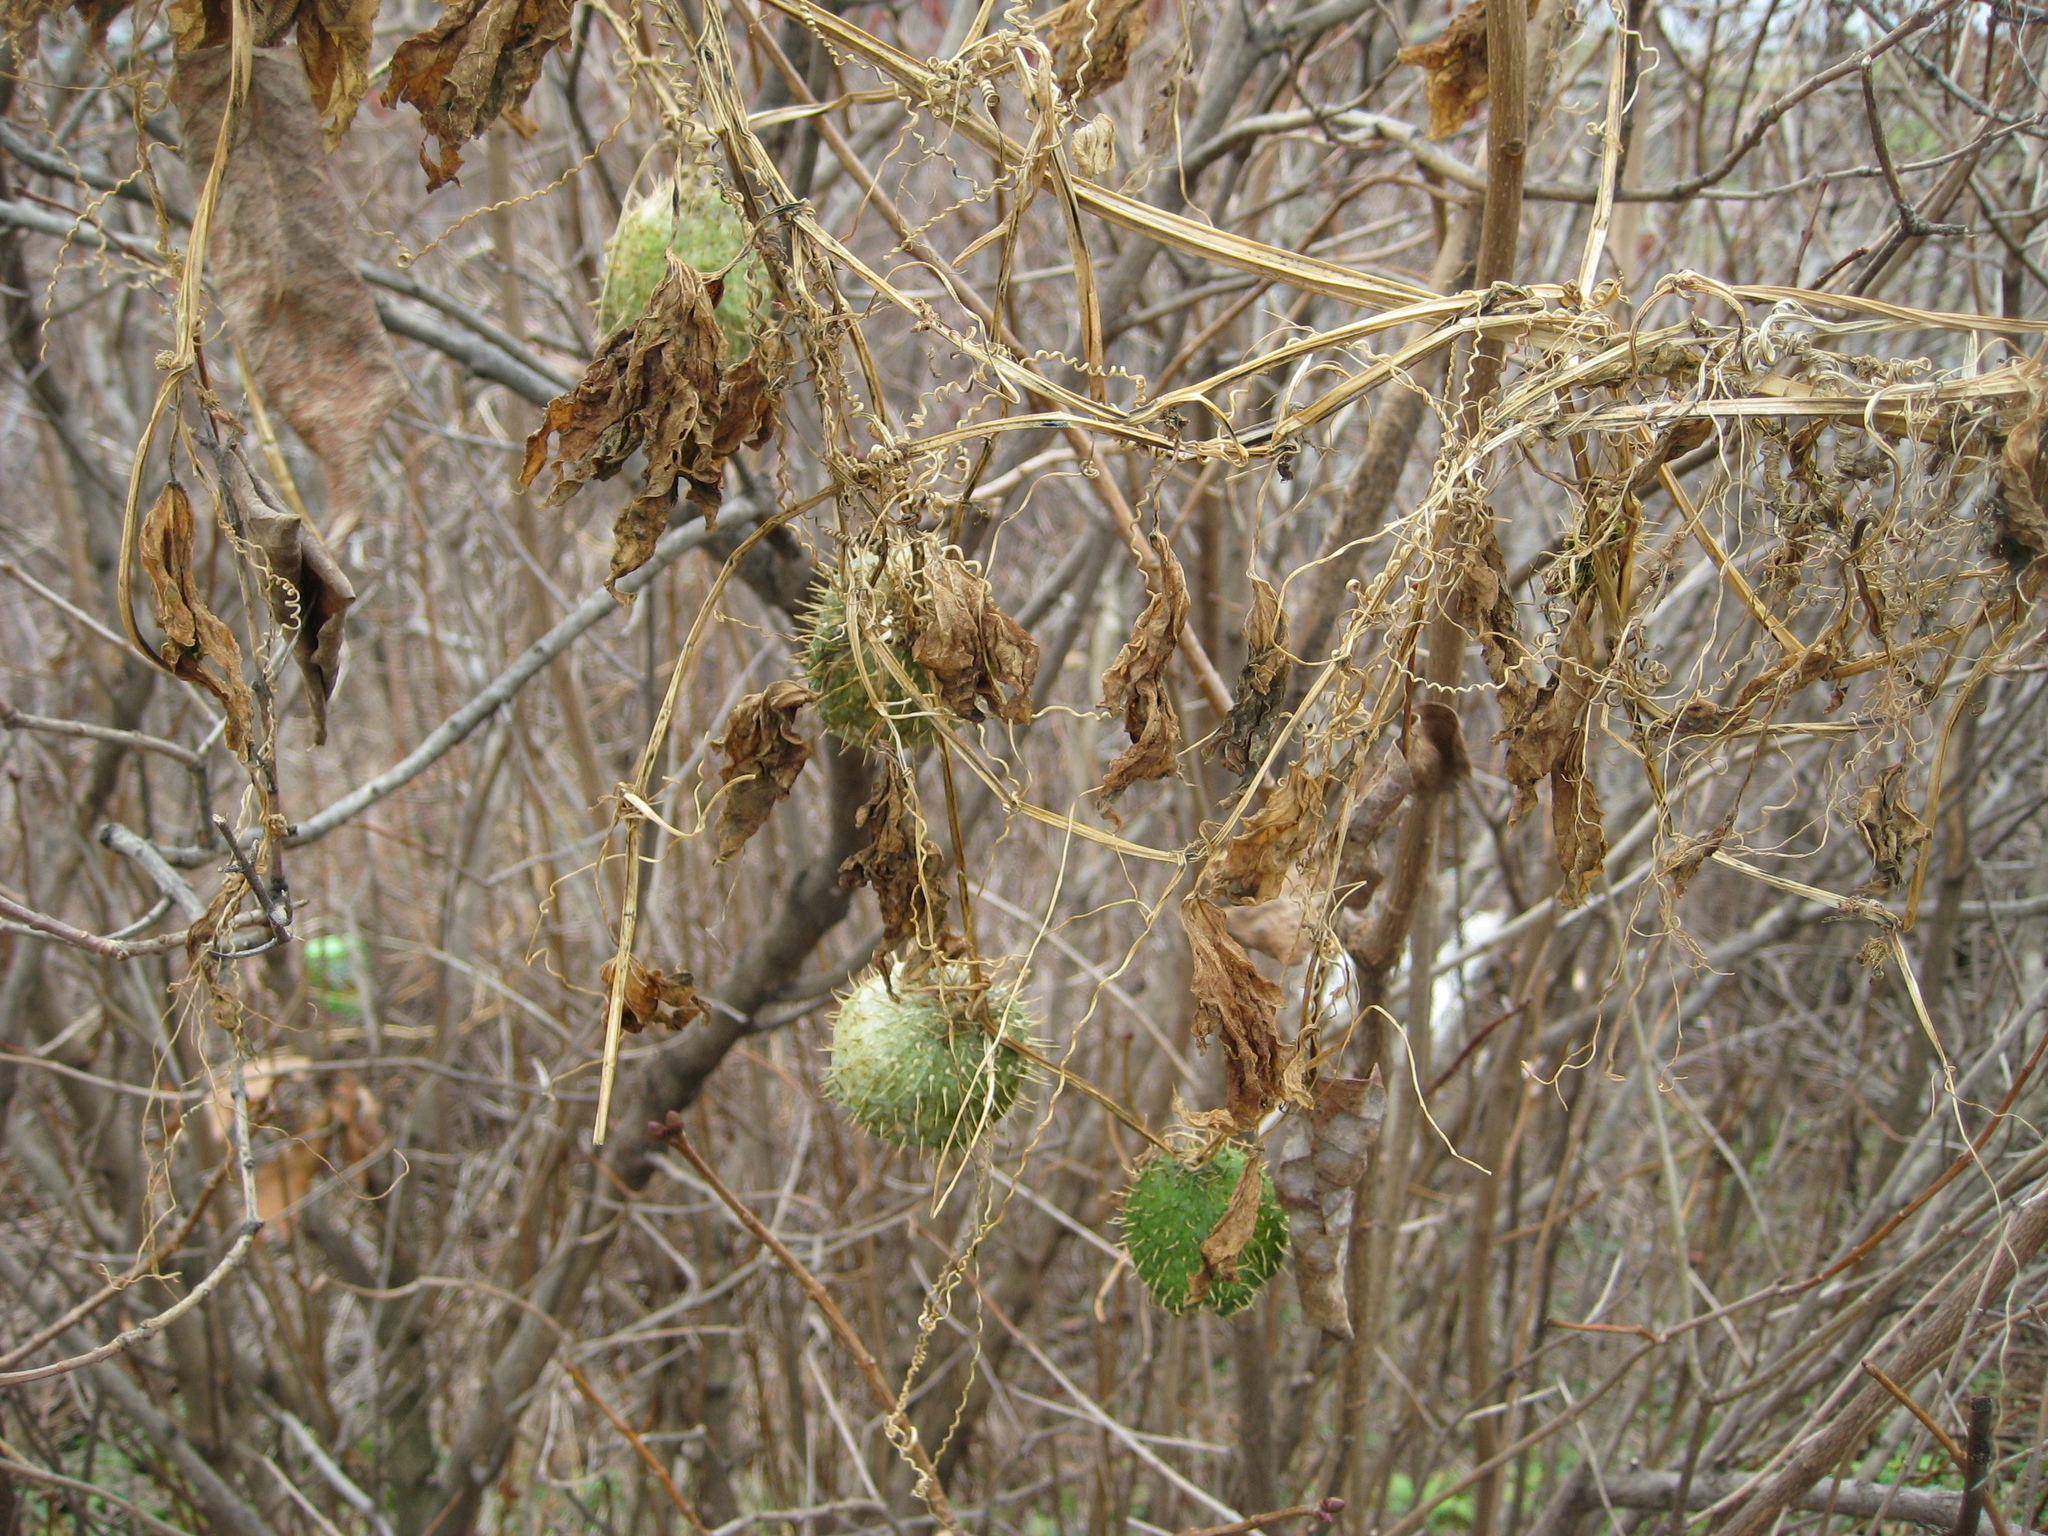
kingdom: Plantae
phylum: Tracheophyta
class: Magnoliopsida
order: Cucurbitales
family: Cucurbitaceae
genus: Echinocystis
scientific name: Echinocystis lobata
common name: Wild cucumber
